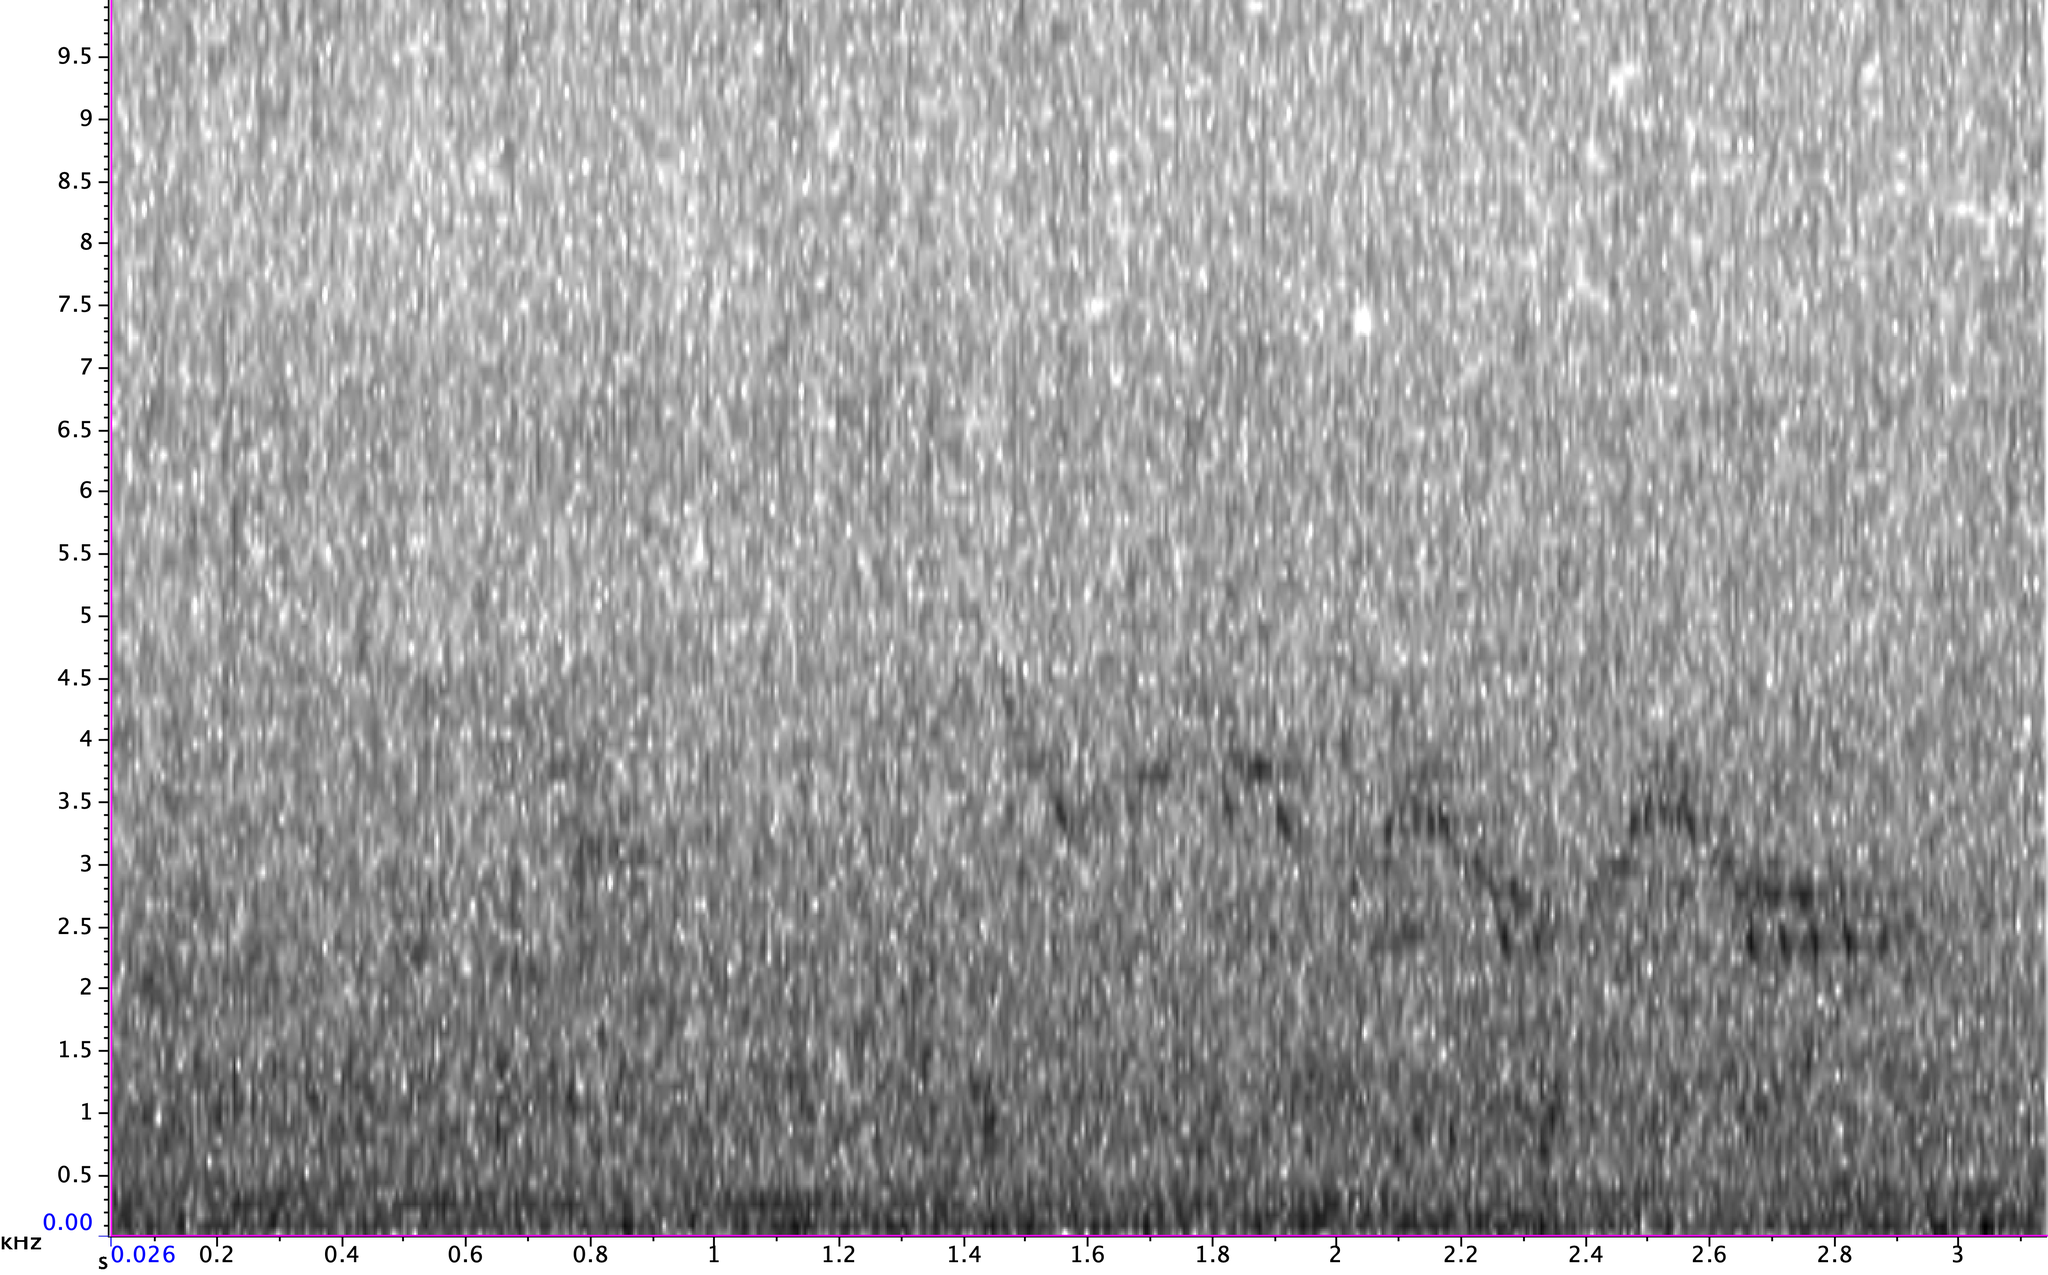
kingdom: Animalia
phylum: Chordata
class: Aves
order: Passeriformes
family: Turdidae
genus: Catharus
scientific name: Catharus fuscescens
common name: Veery
